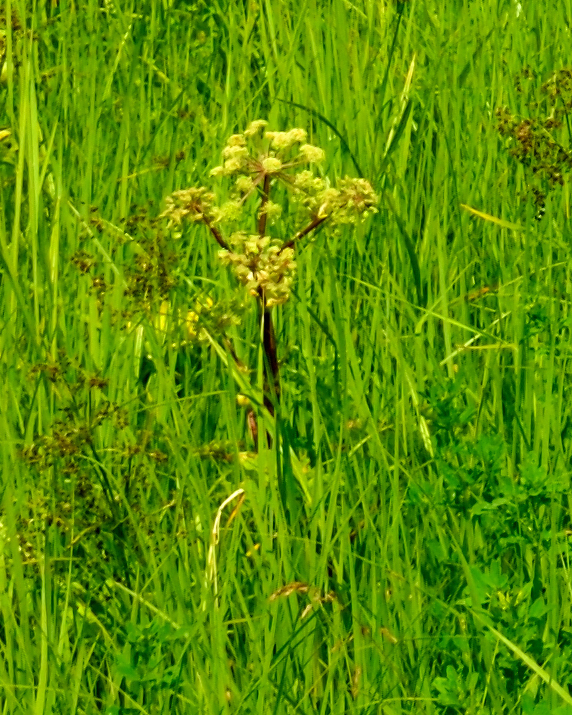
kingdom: Plantae
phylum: Tracheophyta
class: Magnoliopsida
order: Apiales
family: Apiaceae
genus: Angelica
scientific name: Angelica archangelica
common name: Garden angelica
